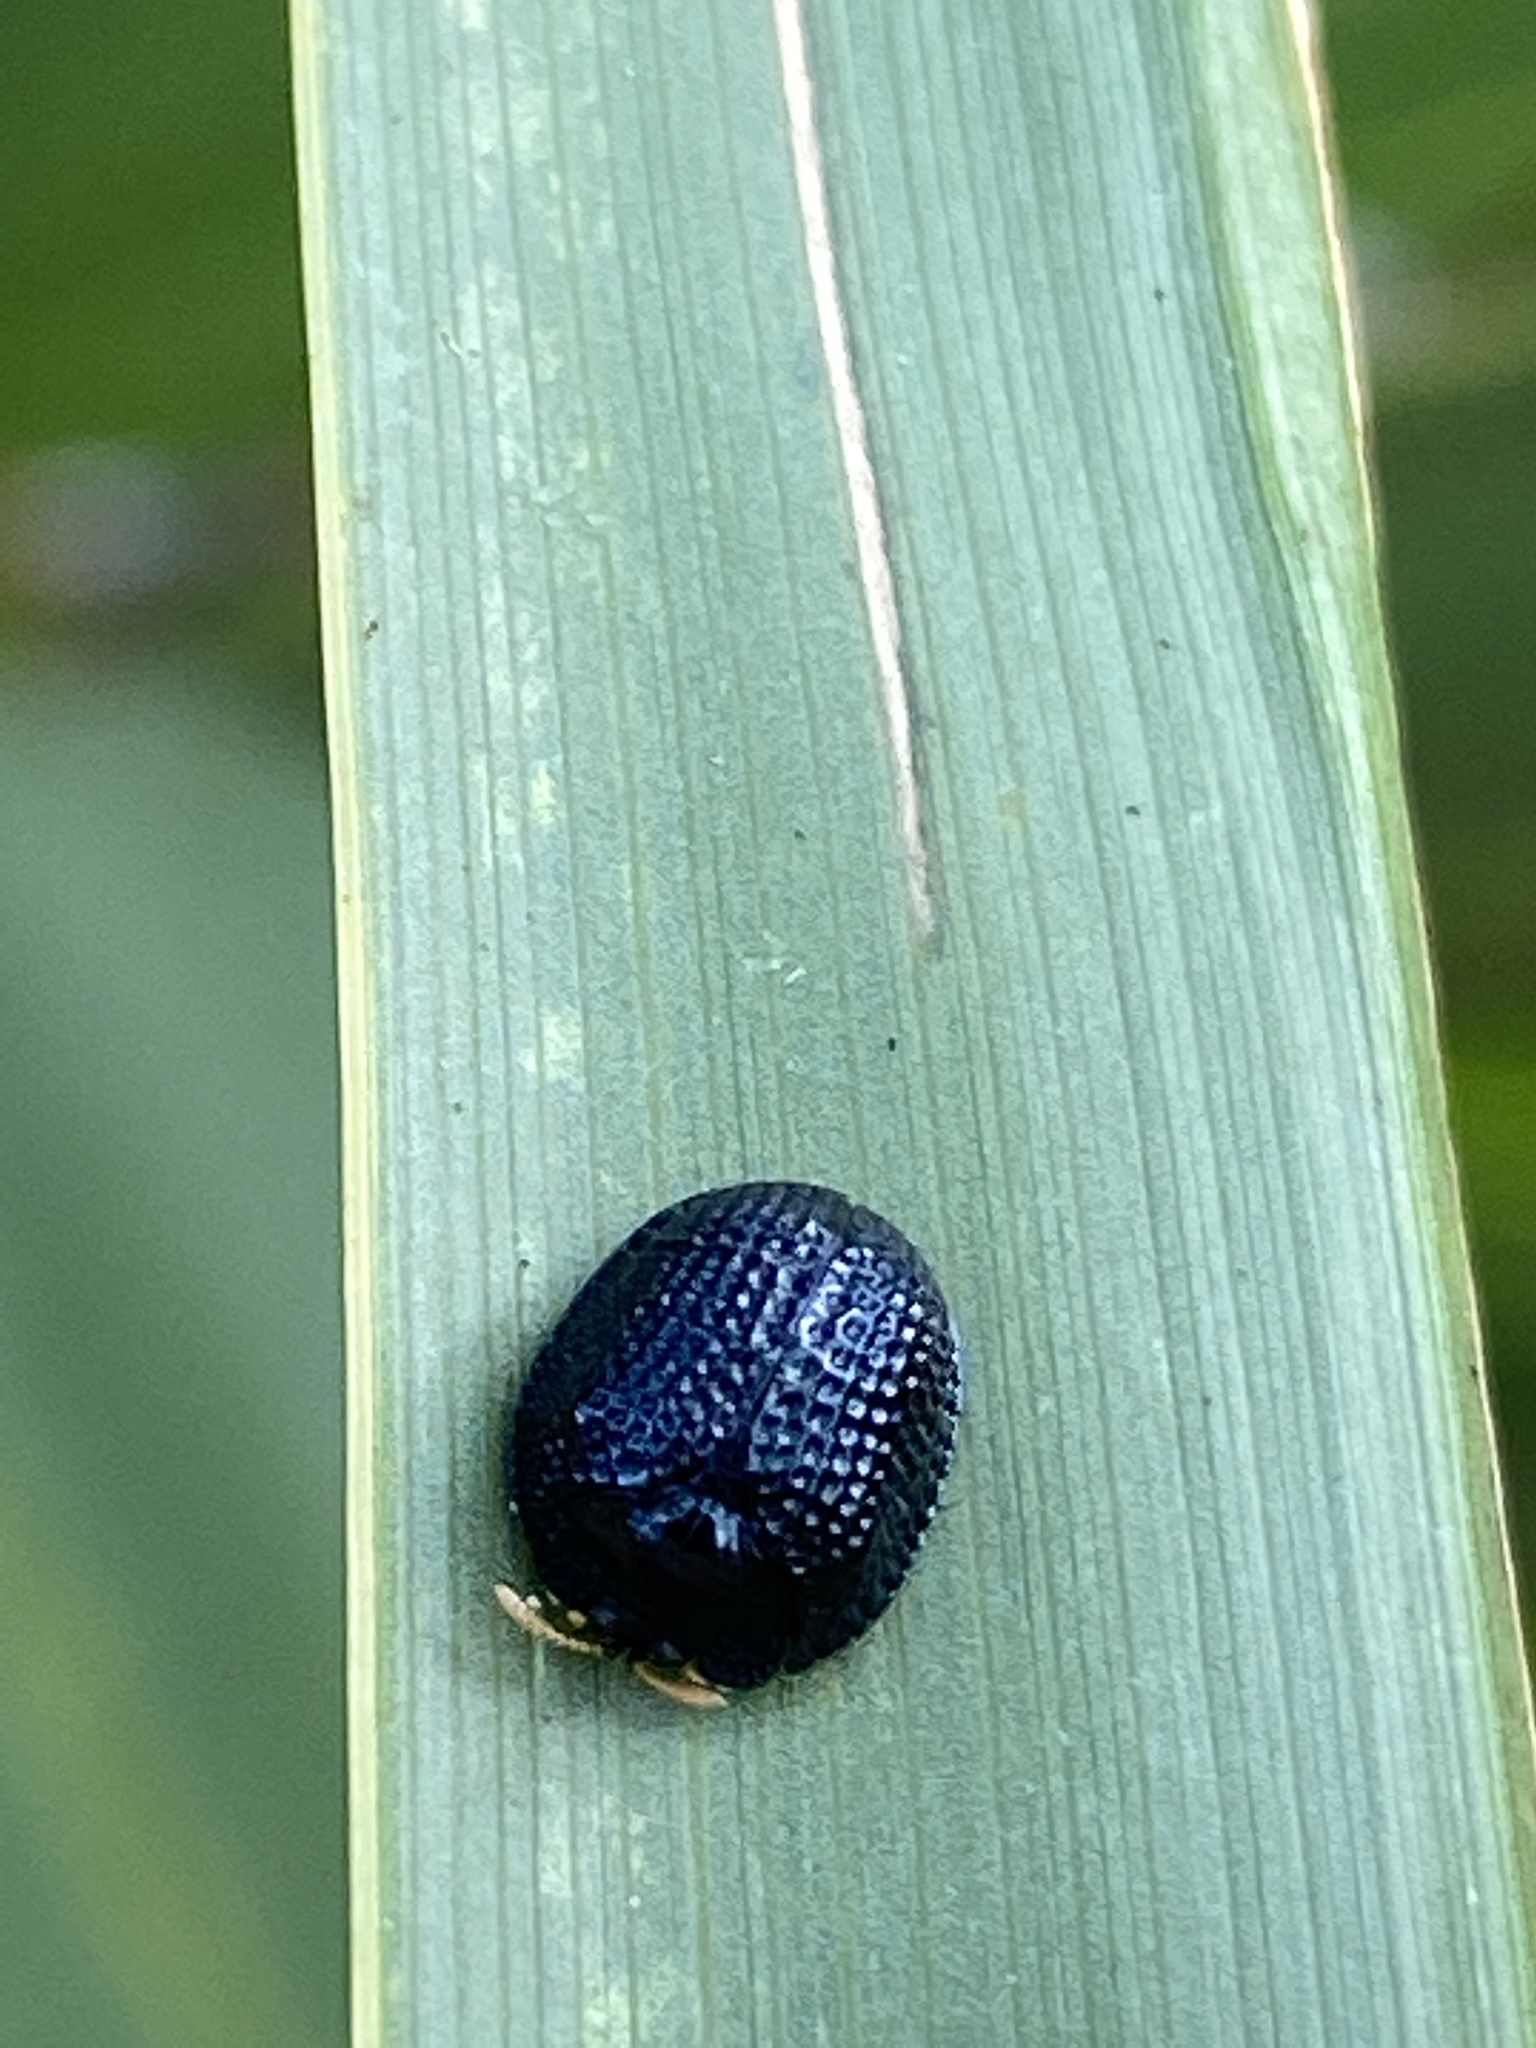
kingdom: Animalia
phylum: Arthropoda
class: Insecta
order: Coleoptera
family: Chrysomelidae
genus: Hemisphaerota
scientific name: Hemisphaerota cyanea
